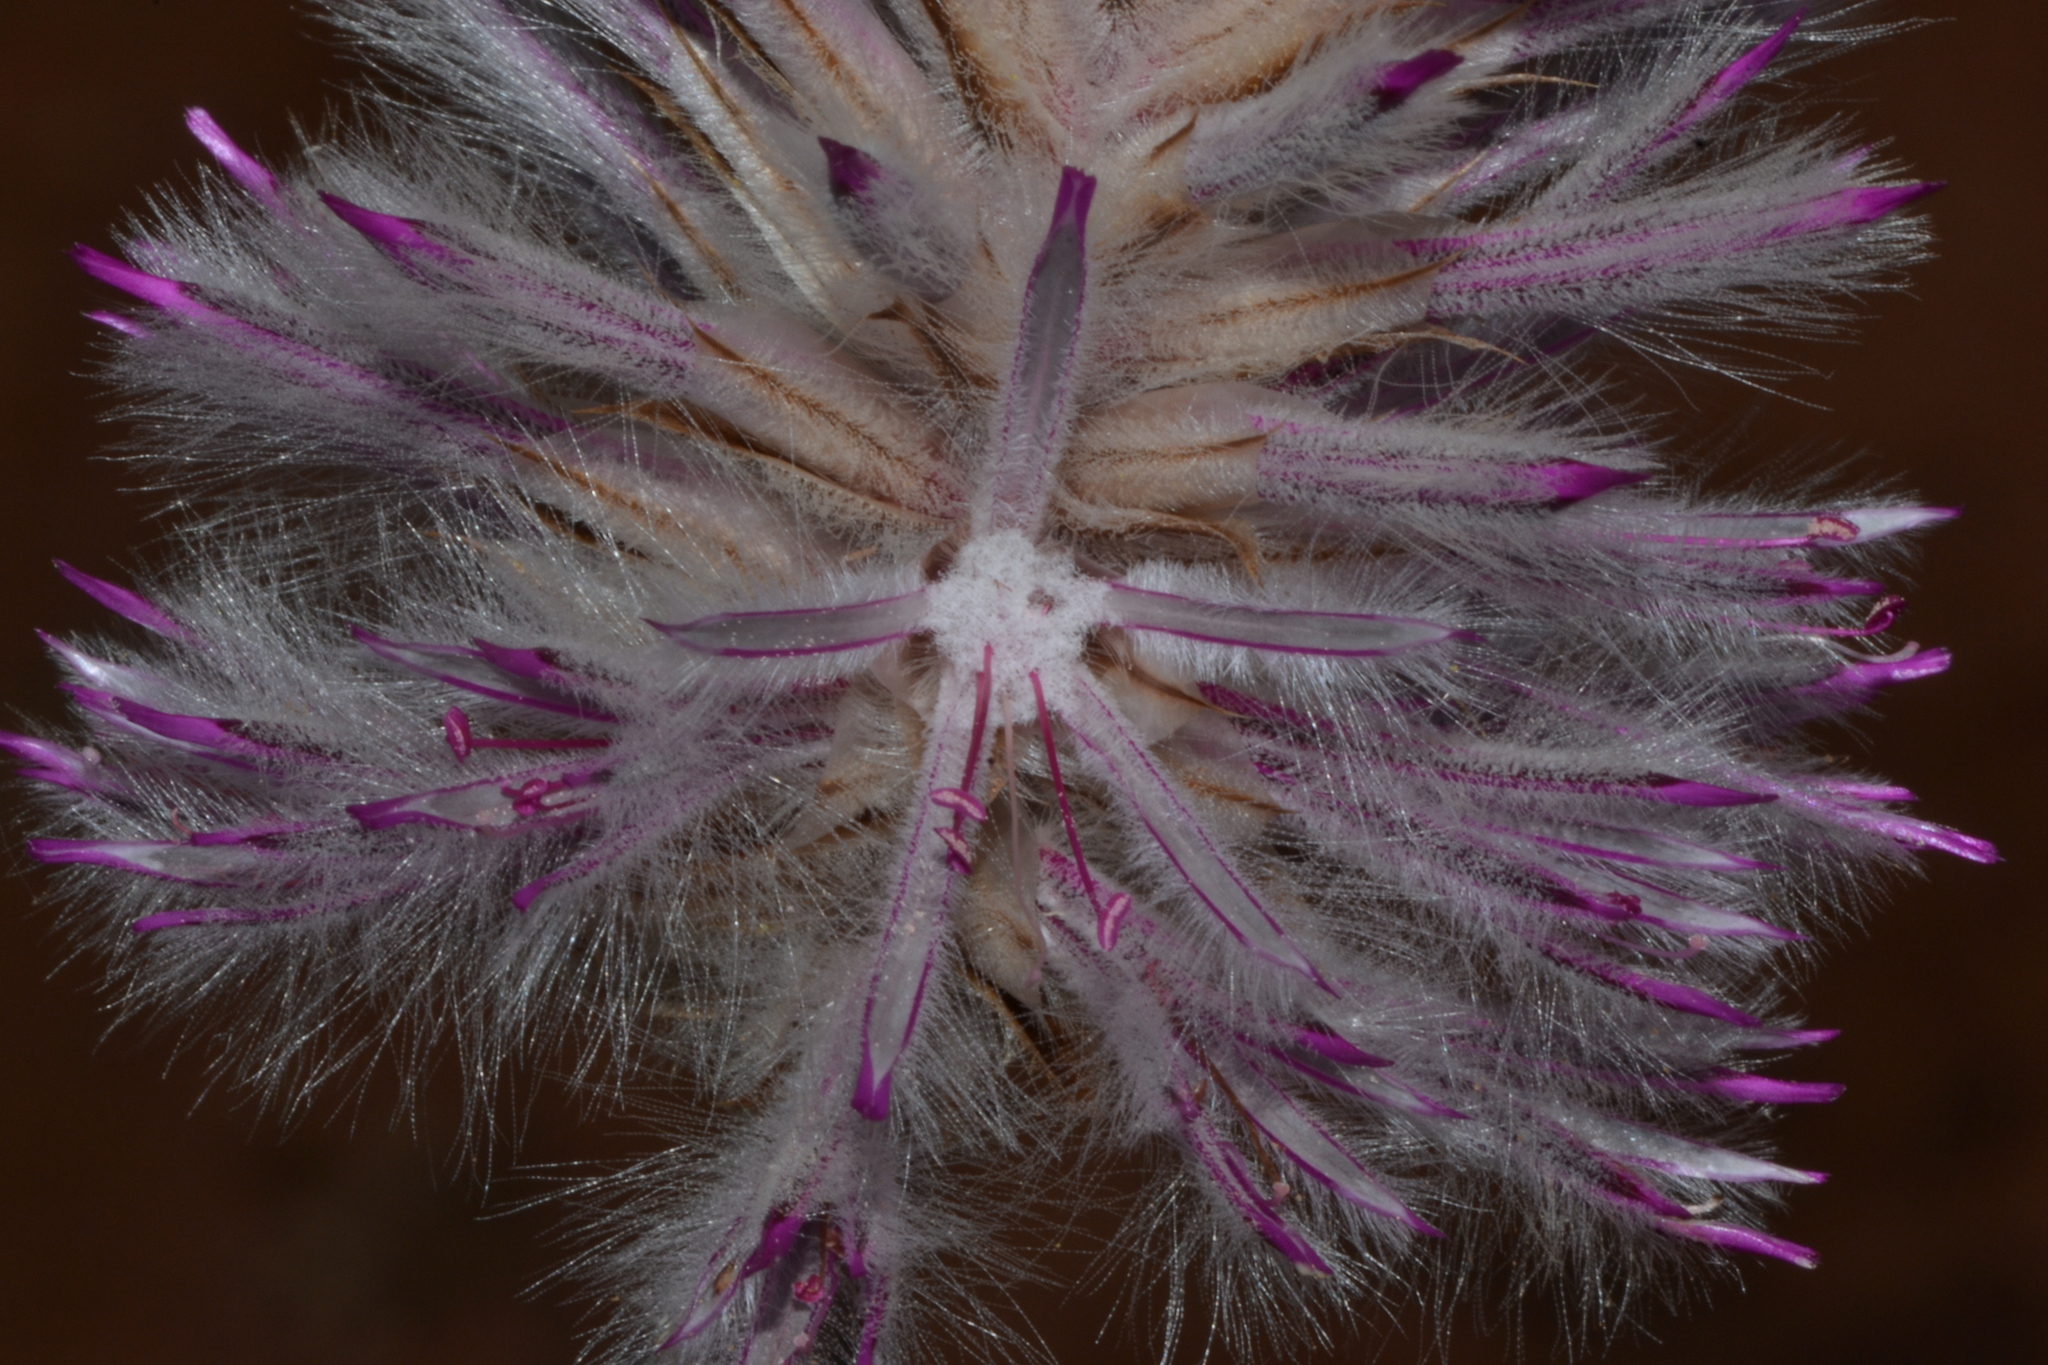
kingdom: Plantae
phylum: Tracheophyta
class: Magnoliopsida
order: Caryophyllales
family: Amaranthaceae
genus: Ptilotus
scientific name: Ptilotus exaltatus
